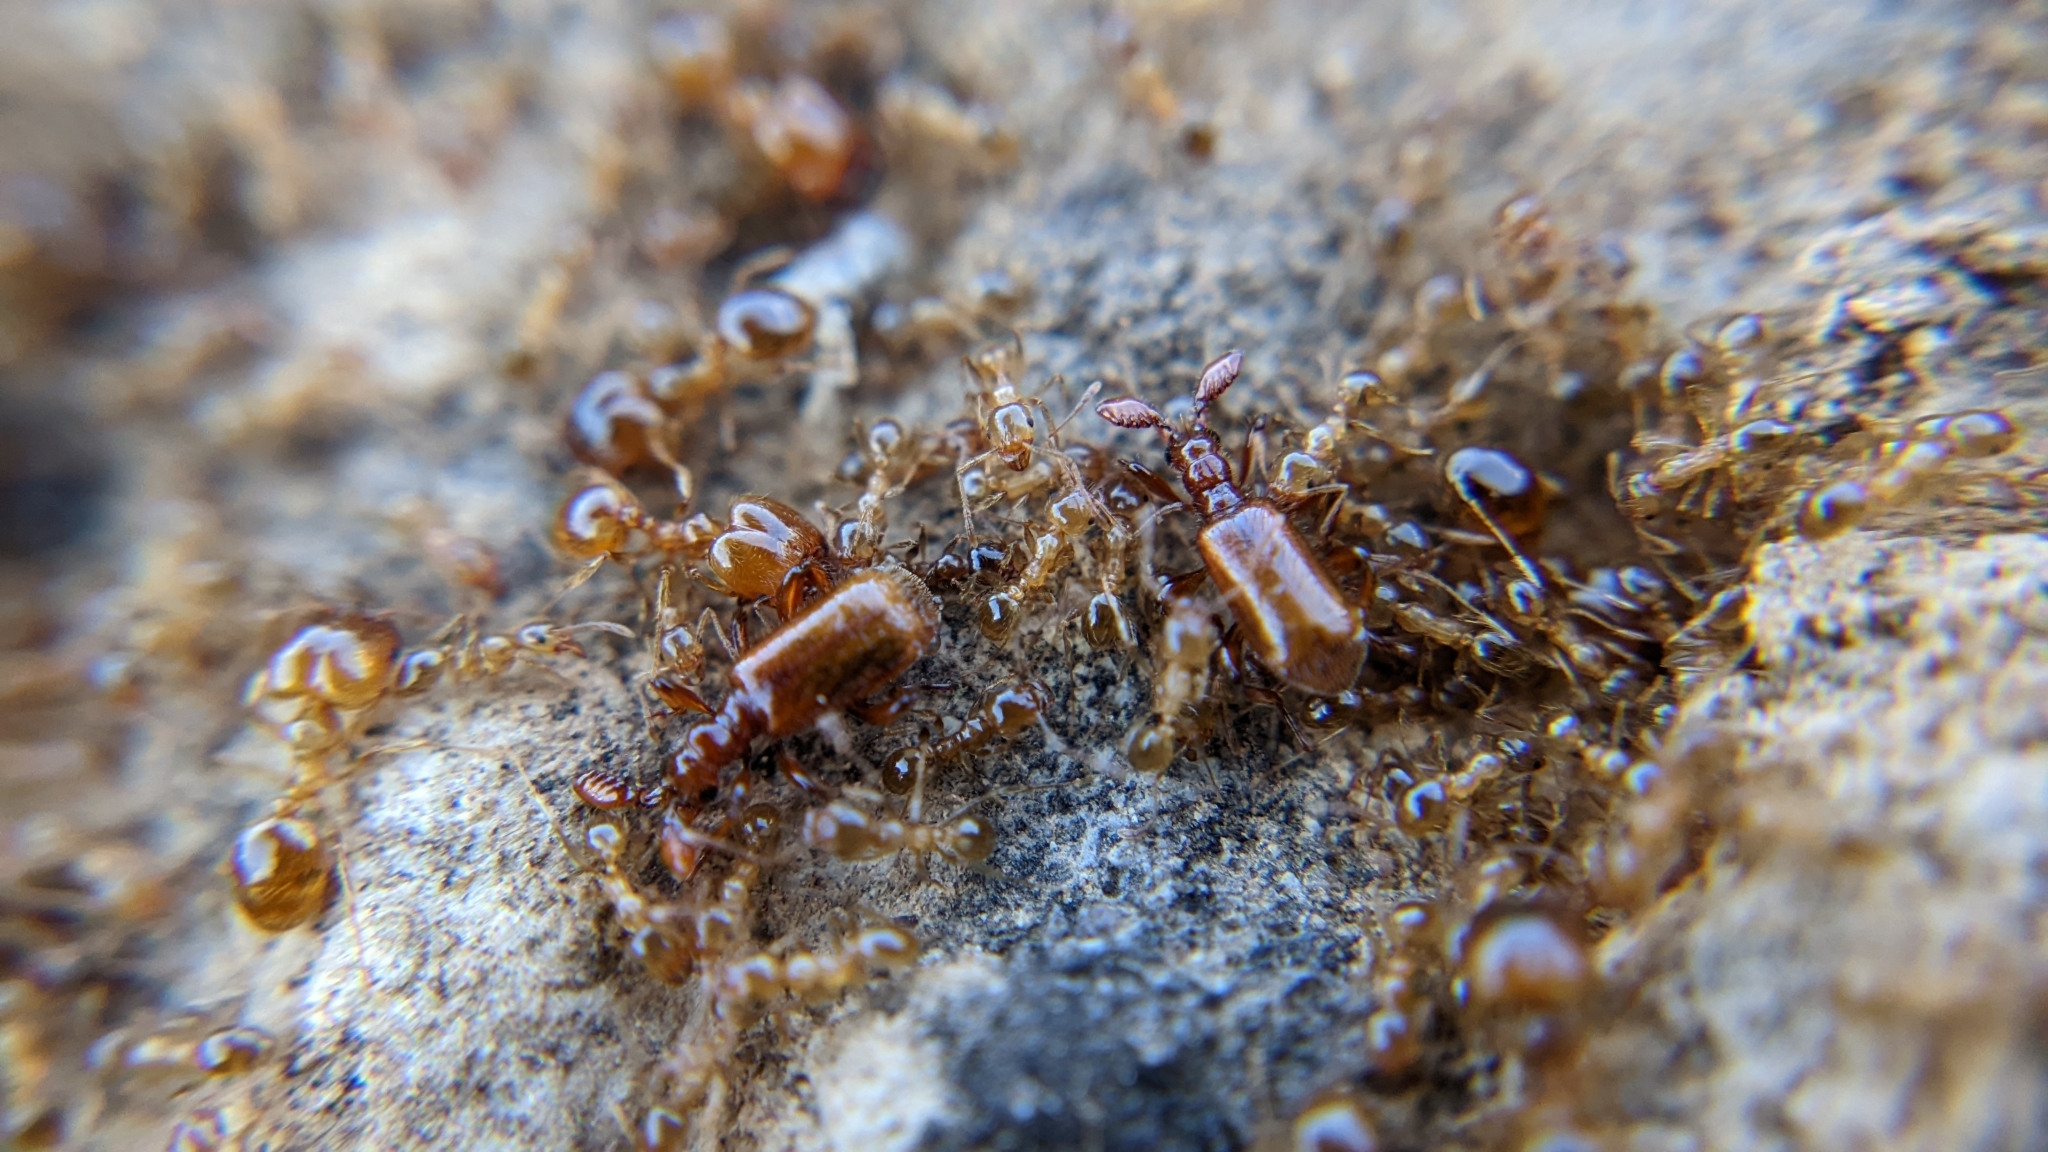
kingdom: Animalia
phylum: Arthropoda
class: Insecta
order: Coleoptera
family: Carabidae
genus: Paussus
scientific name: Paussus favieri
